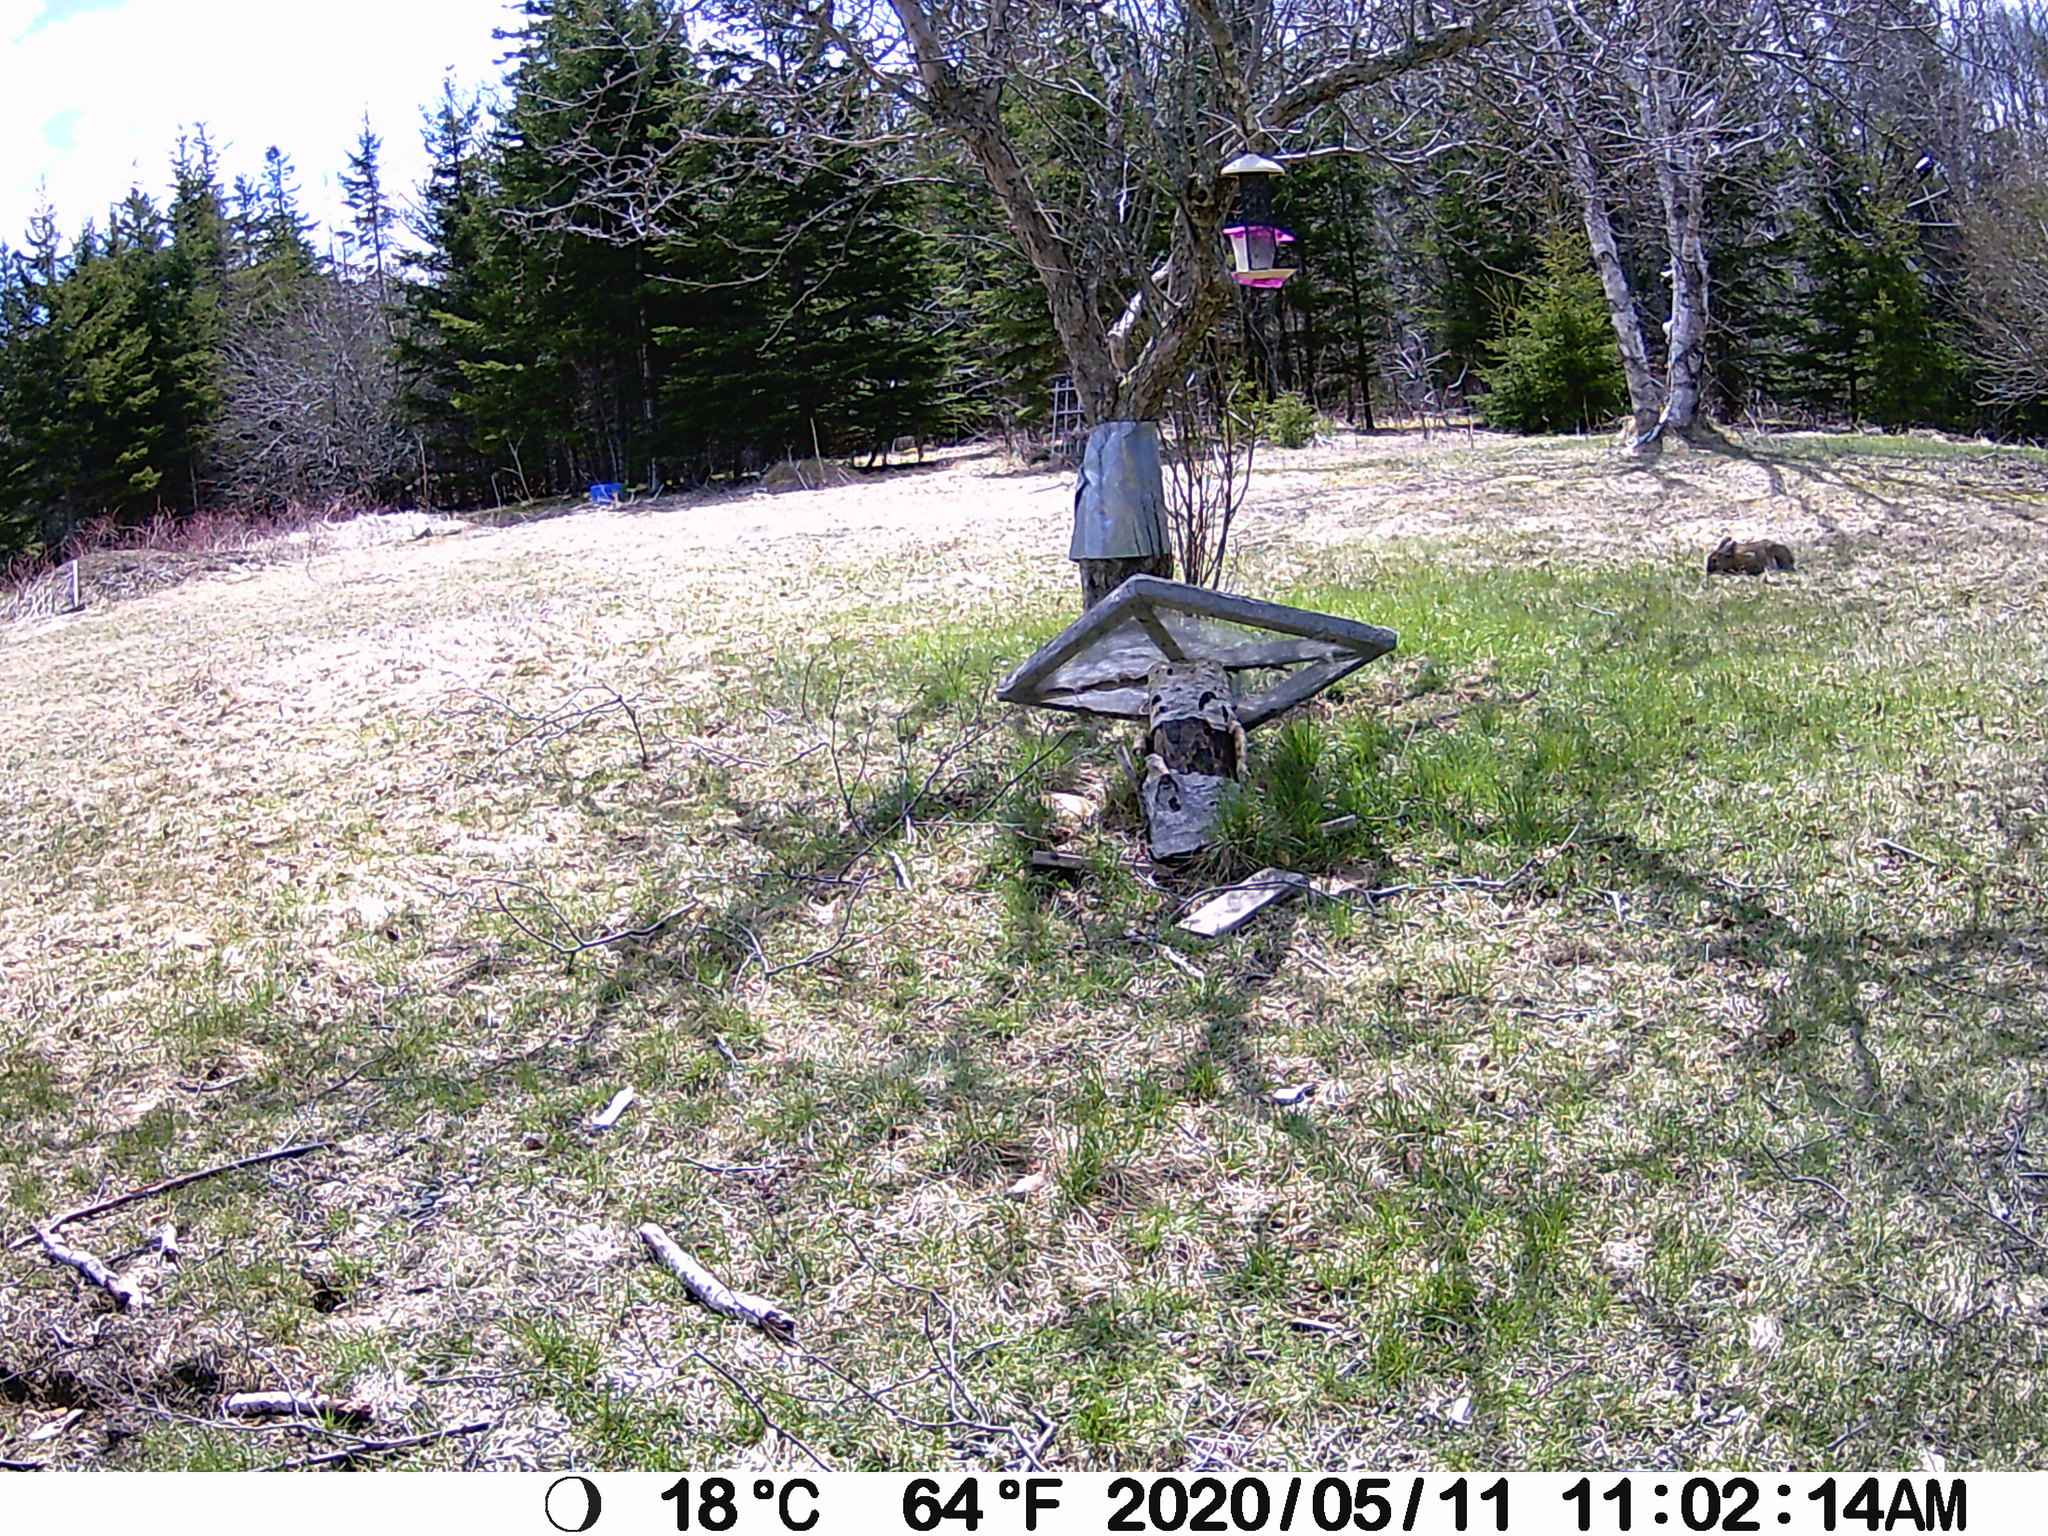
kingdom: Animalia
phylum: Chordata
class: Mammalia
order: Lagomorpha
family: Leporidae
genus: Lepus
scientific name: Lepus americanus
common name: Snowshoe hare
